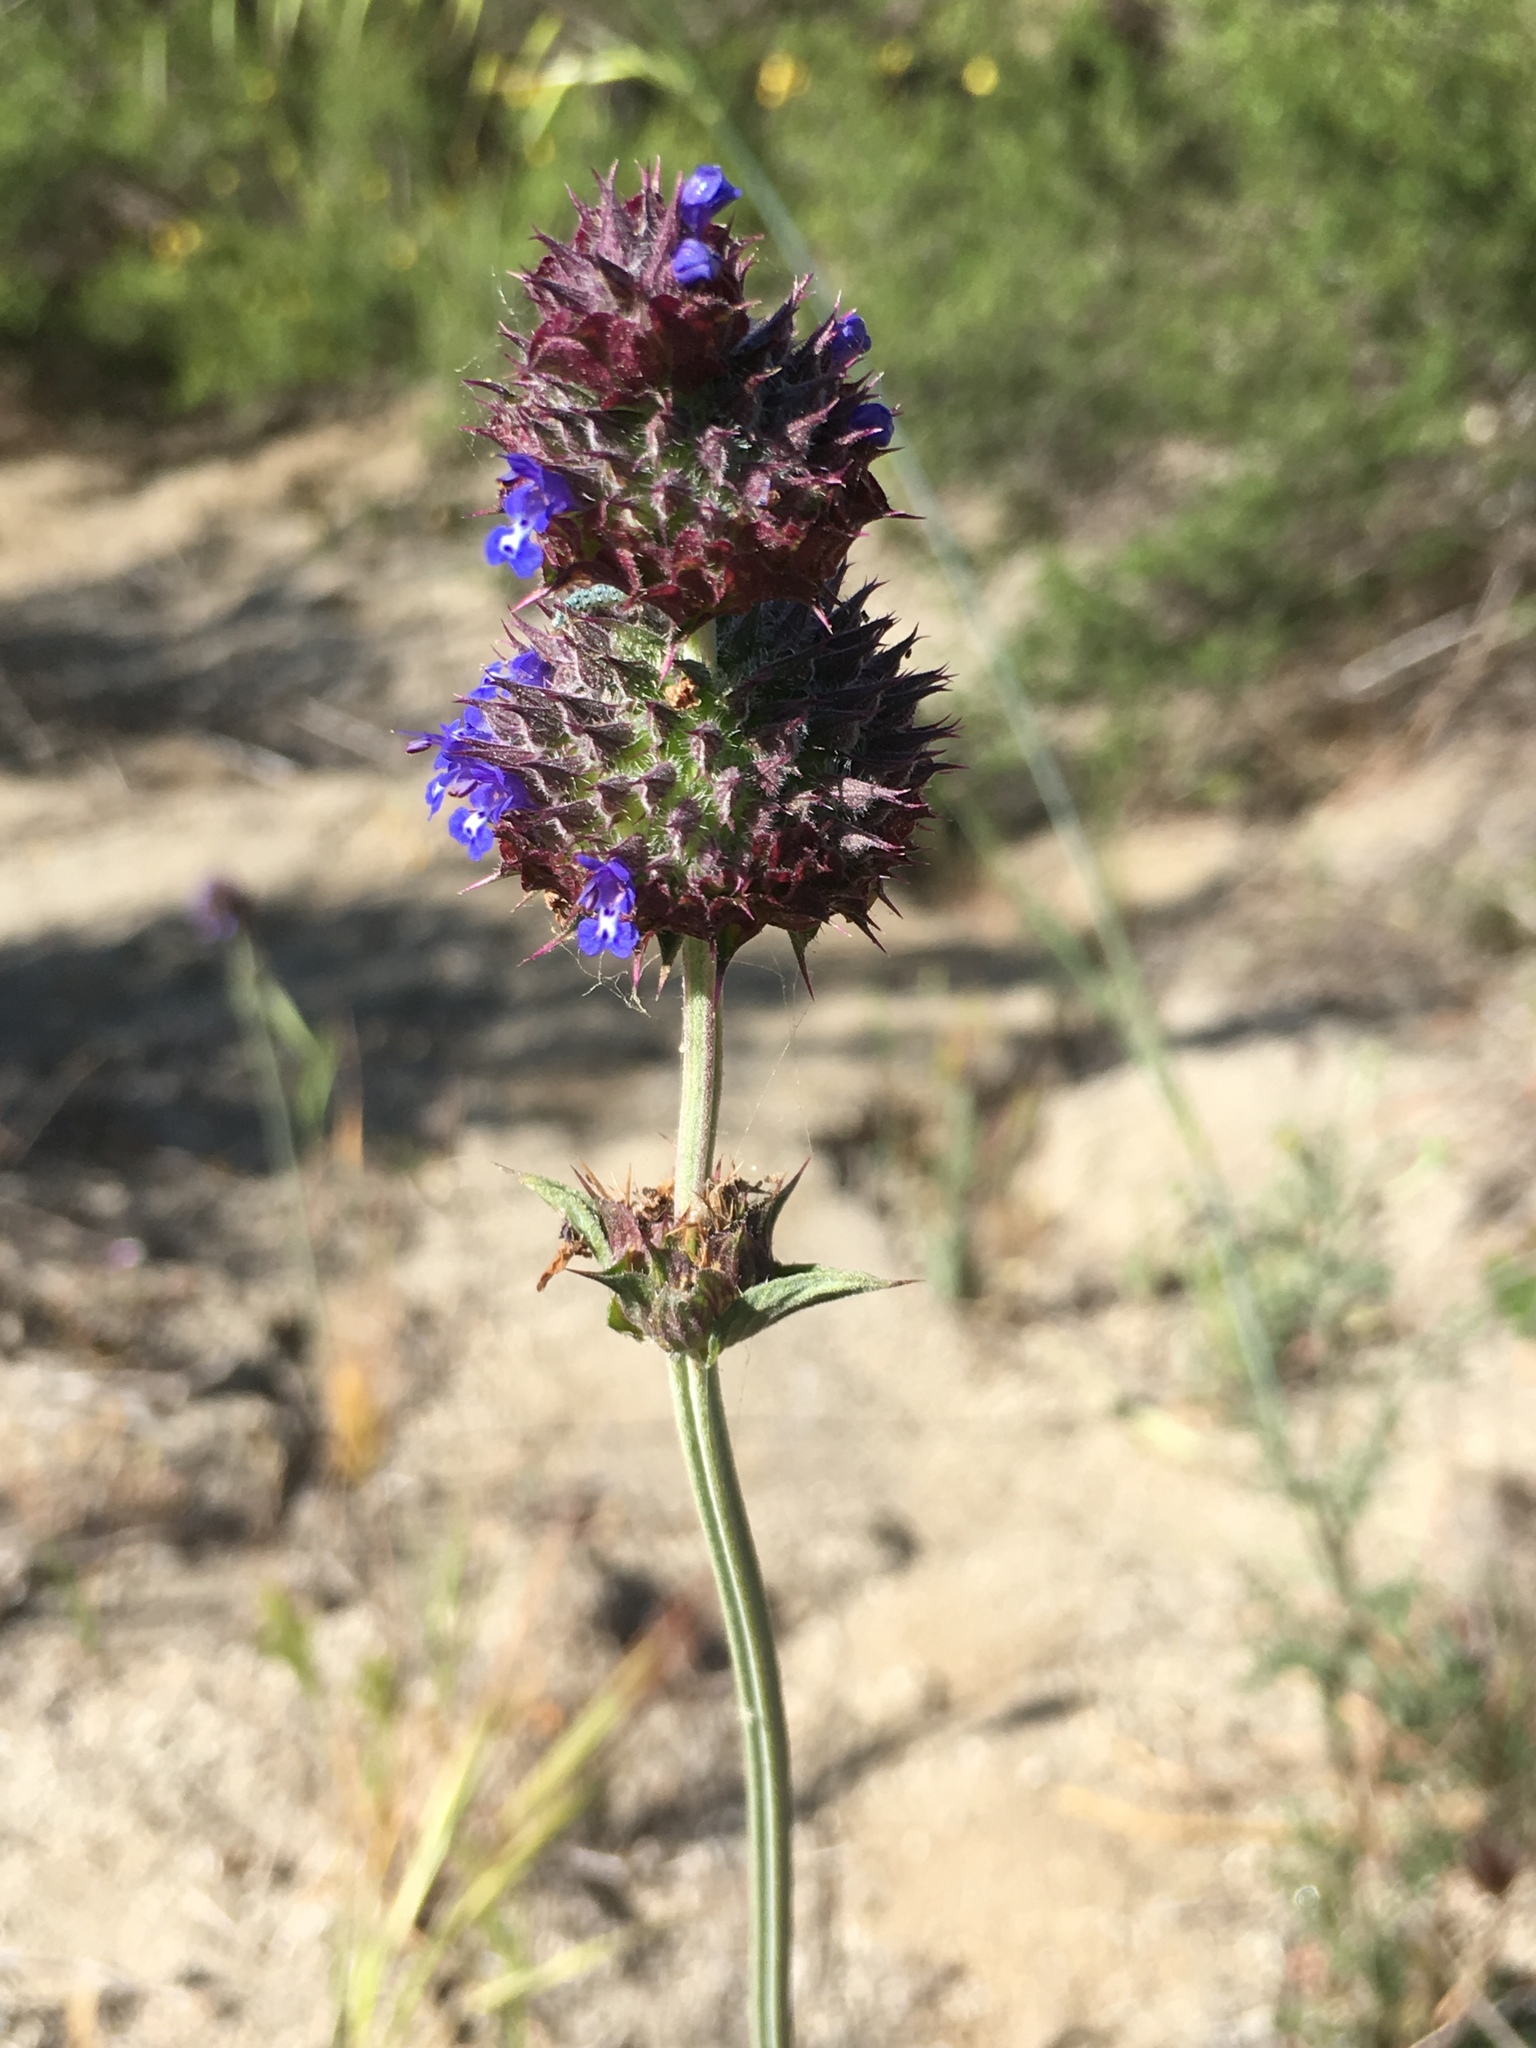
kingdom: Plantae
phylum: Tracheophyta
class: Magnoliopsida
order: Lamiales
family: Lamiaceae
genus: Salvia
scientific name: Salvia columbariae
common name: Chia
